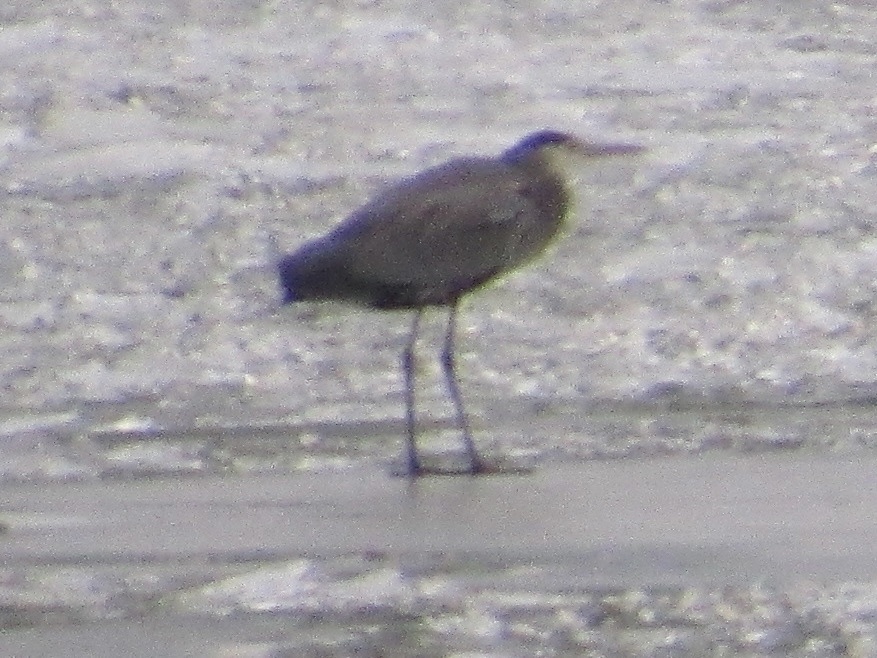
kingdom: Animalia
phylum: Chordata
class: Aves
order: Pelecaniformes
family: Ardeidae
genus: Ardea
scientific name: Ardea herodias
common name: Great blue heron
